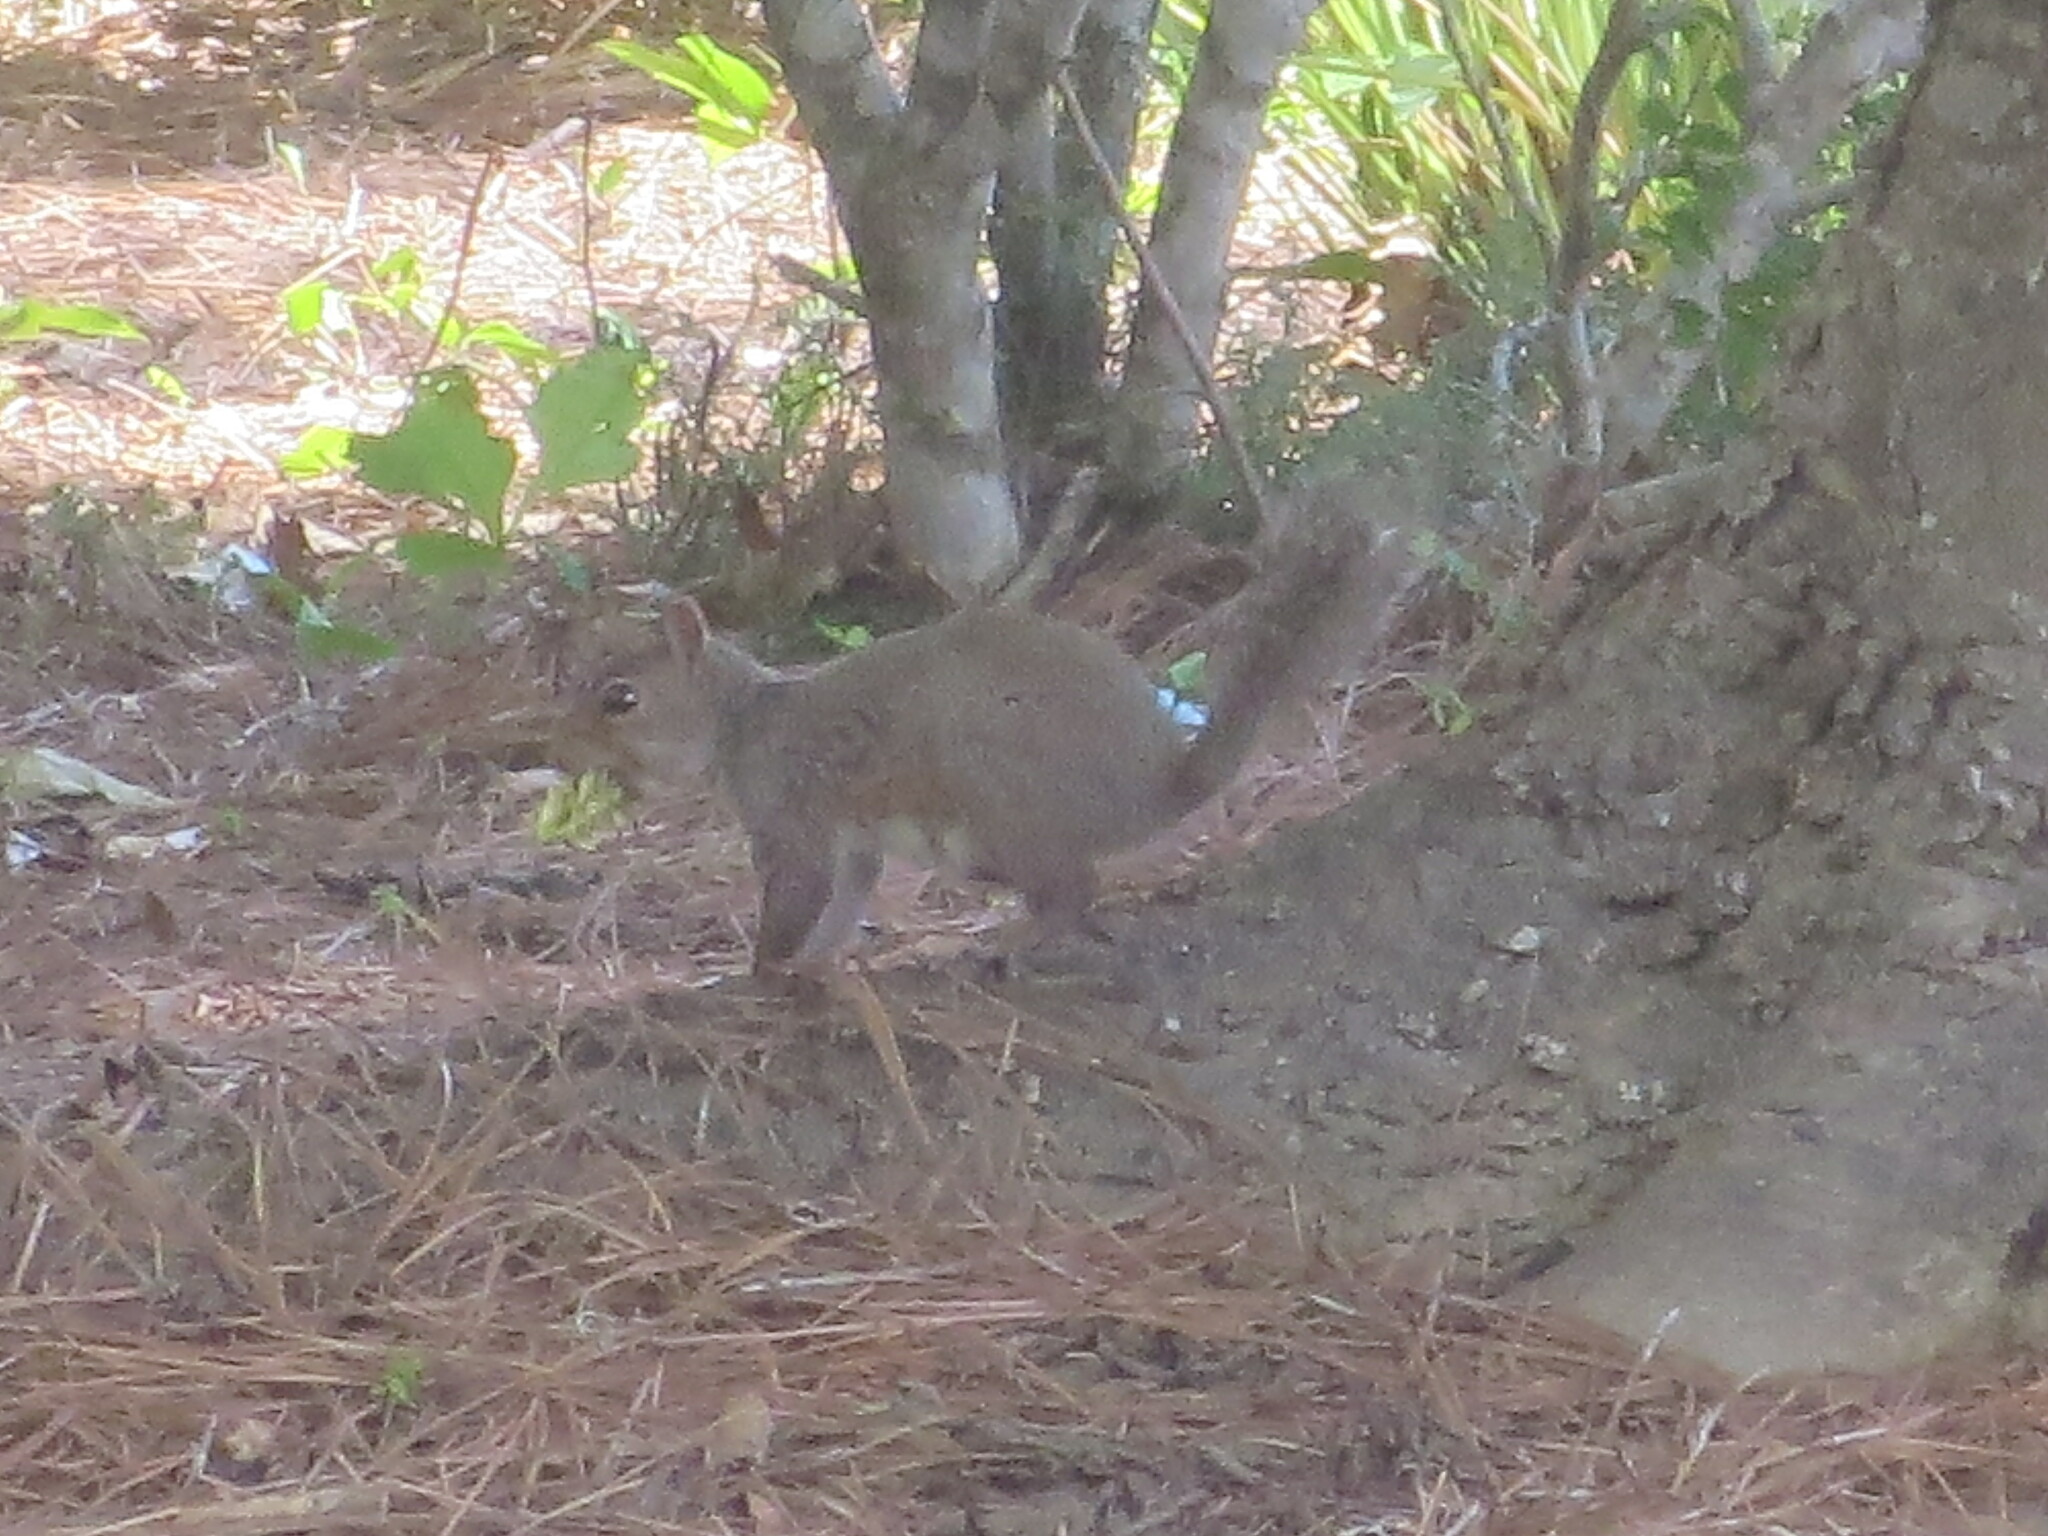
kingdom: Animalia
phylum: Chordata
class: Mammalia
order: Rodentia
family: Sciuridae
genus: Sciurus
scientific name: Sciurus carolinensis
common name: Eastern gray squirrel
